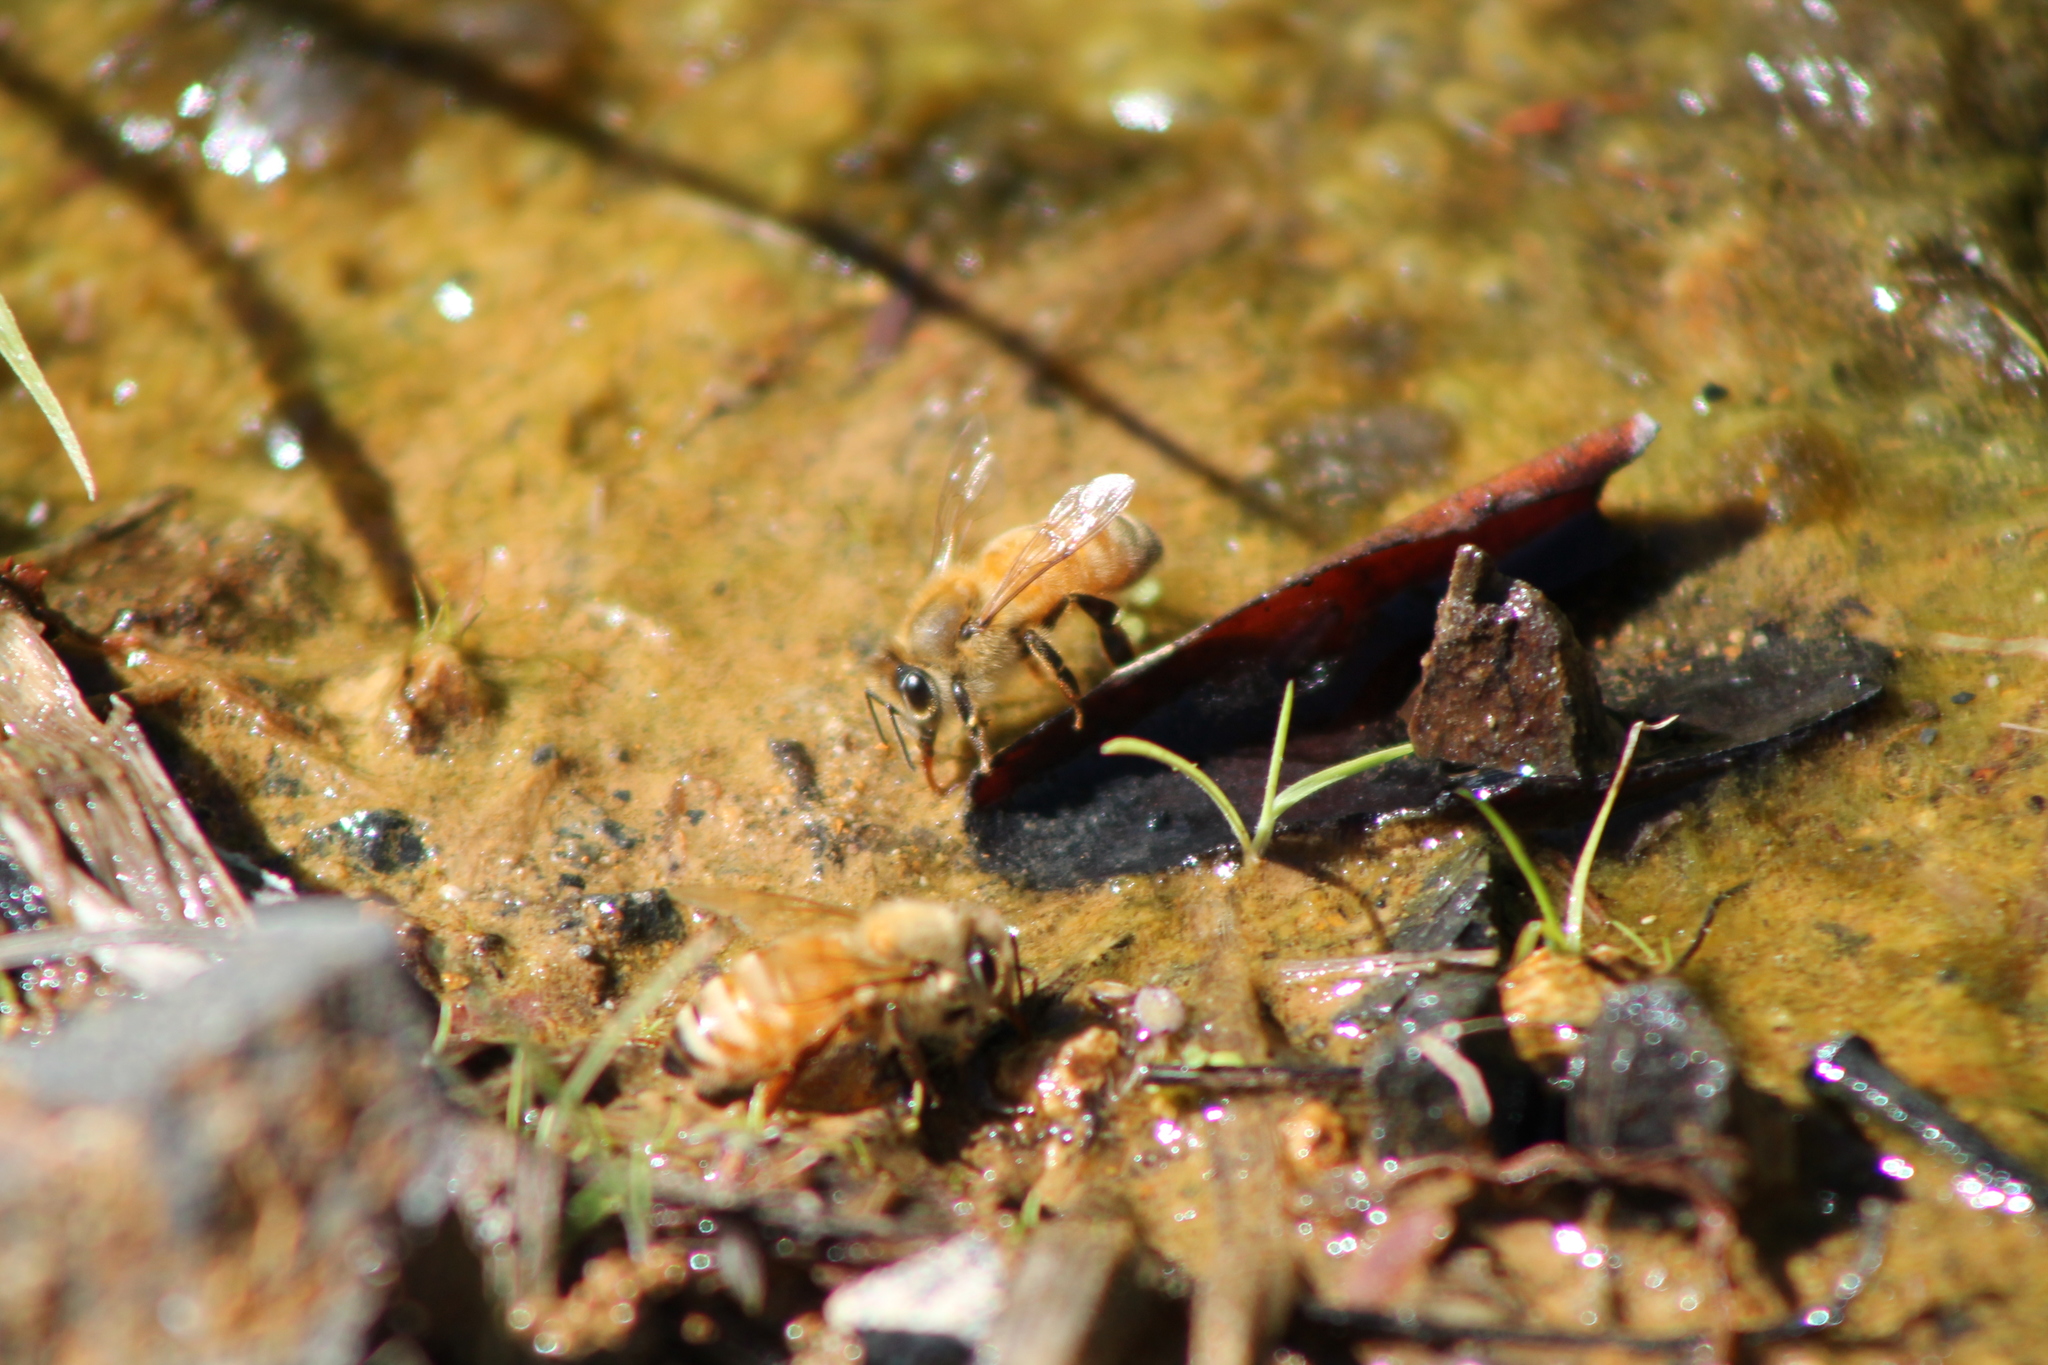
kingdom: Animalia
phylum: Arthropoda
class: Insecta
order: Hymenoptera
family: Apidae
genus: Apis
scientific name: Apis mellifera
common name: Honey bee
